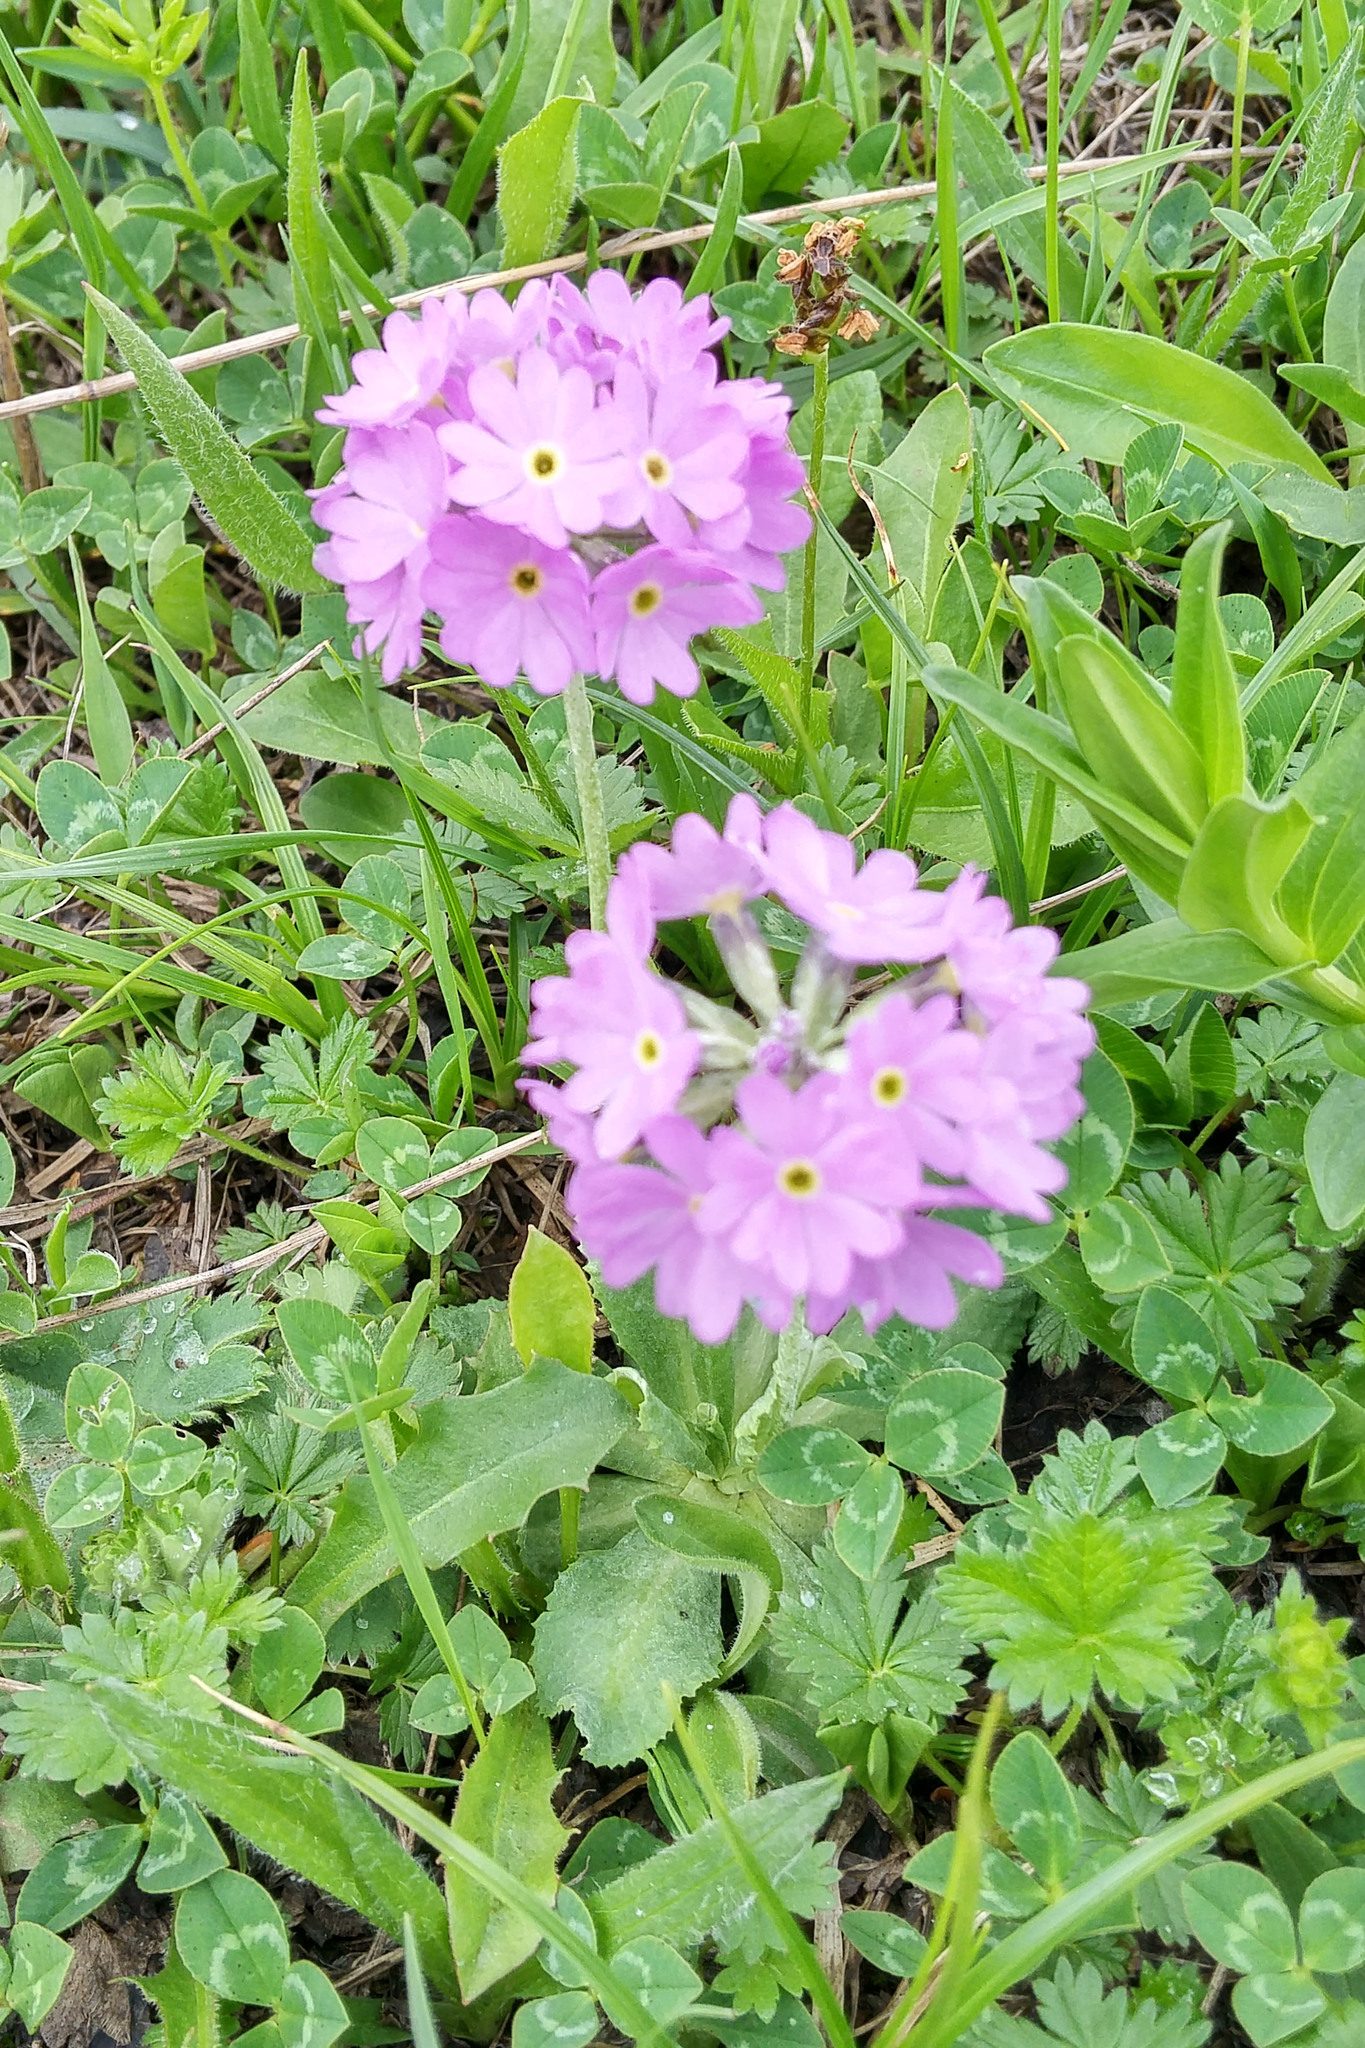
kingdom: Plantae
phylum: Tracheophyta
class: Magnoliopsida
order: Ericales
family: Primulaceae
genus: Primula
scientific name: Primula algida
